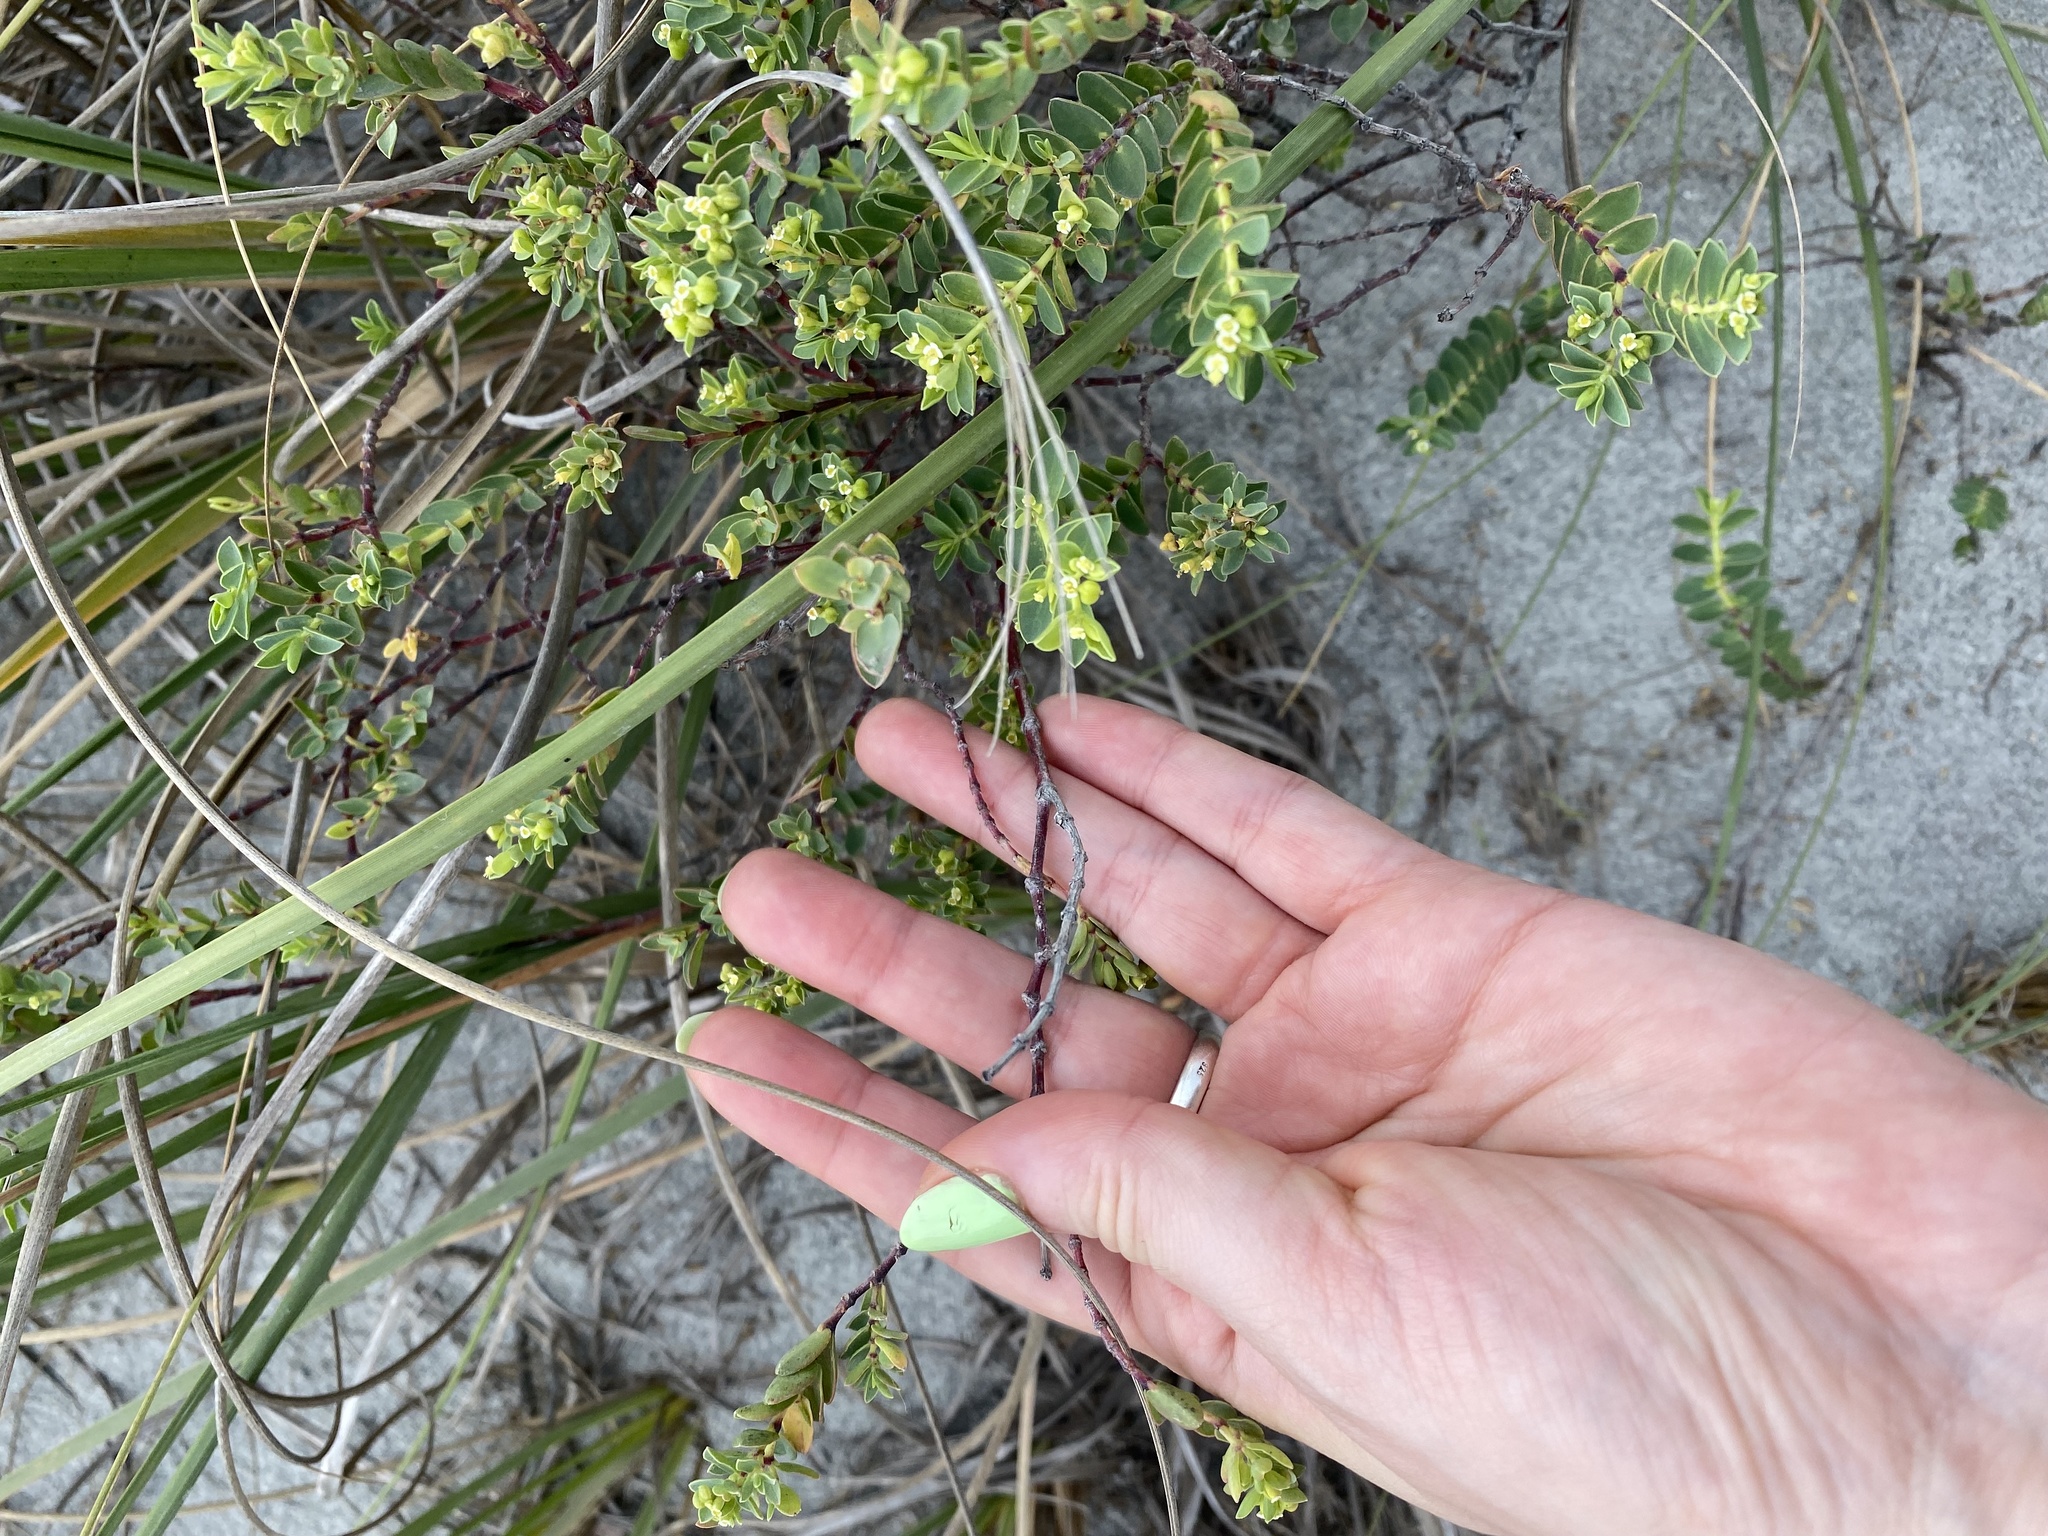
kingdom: Plantae
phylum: Tracheophyta
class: Magnoliopsida
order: Malpighiales
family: Euphorbiaceae
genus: Euphorbia
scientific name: Euphorbia mesembryanthemifolia
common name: Coastal beach sandmat
